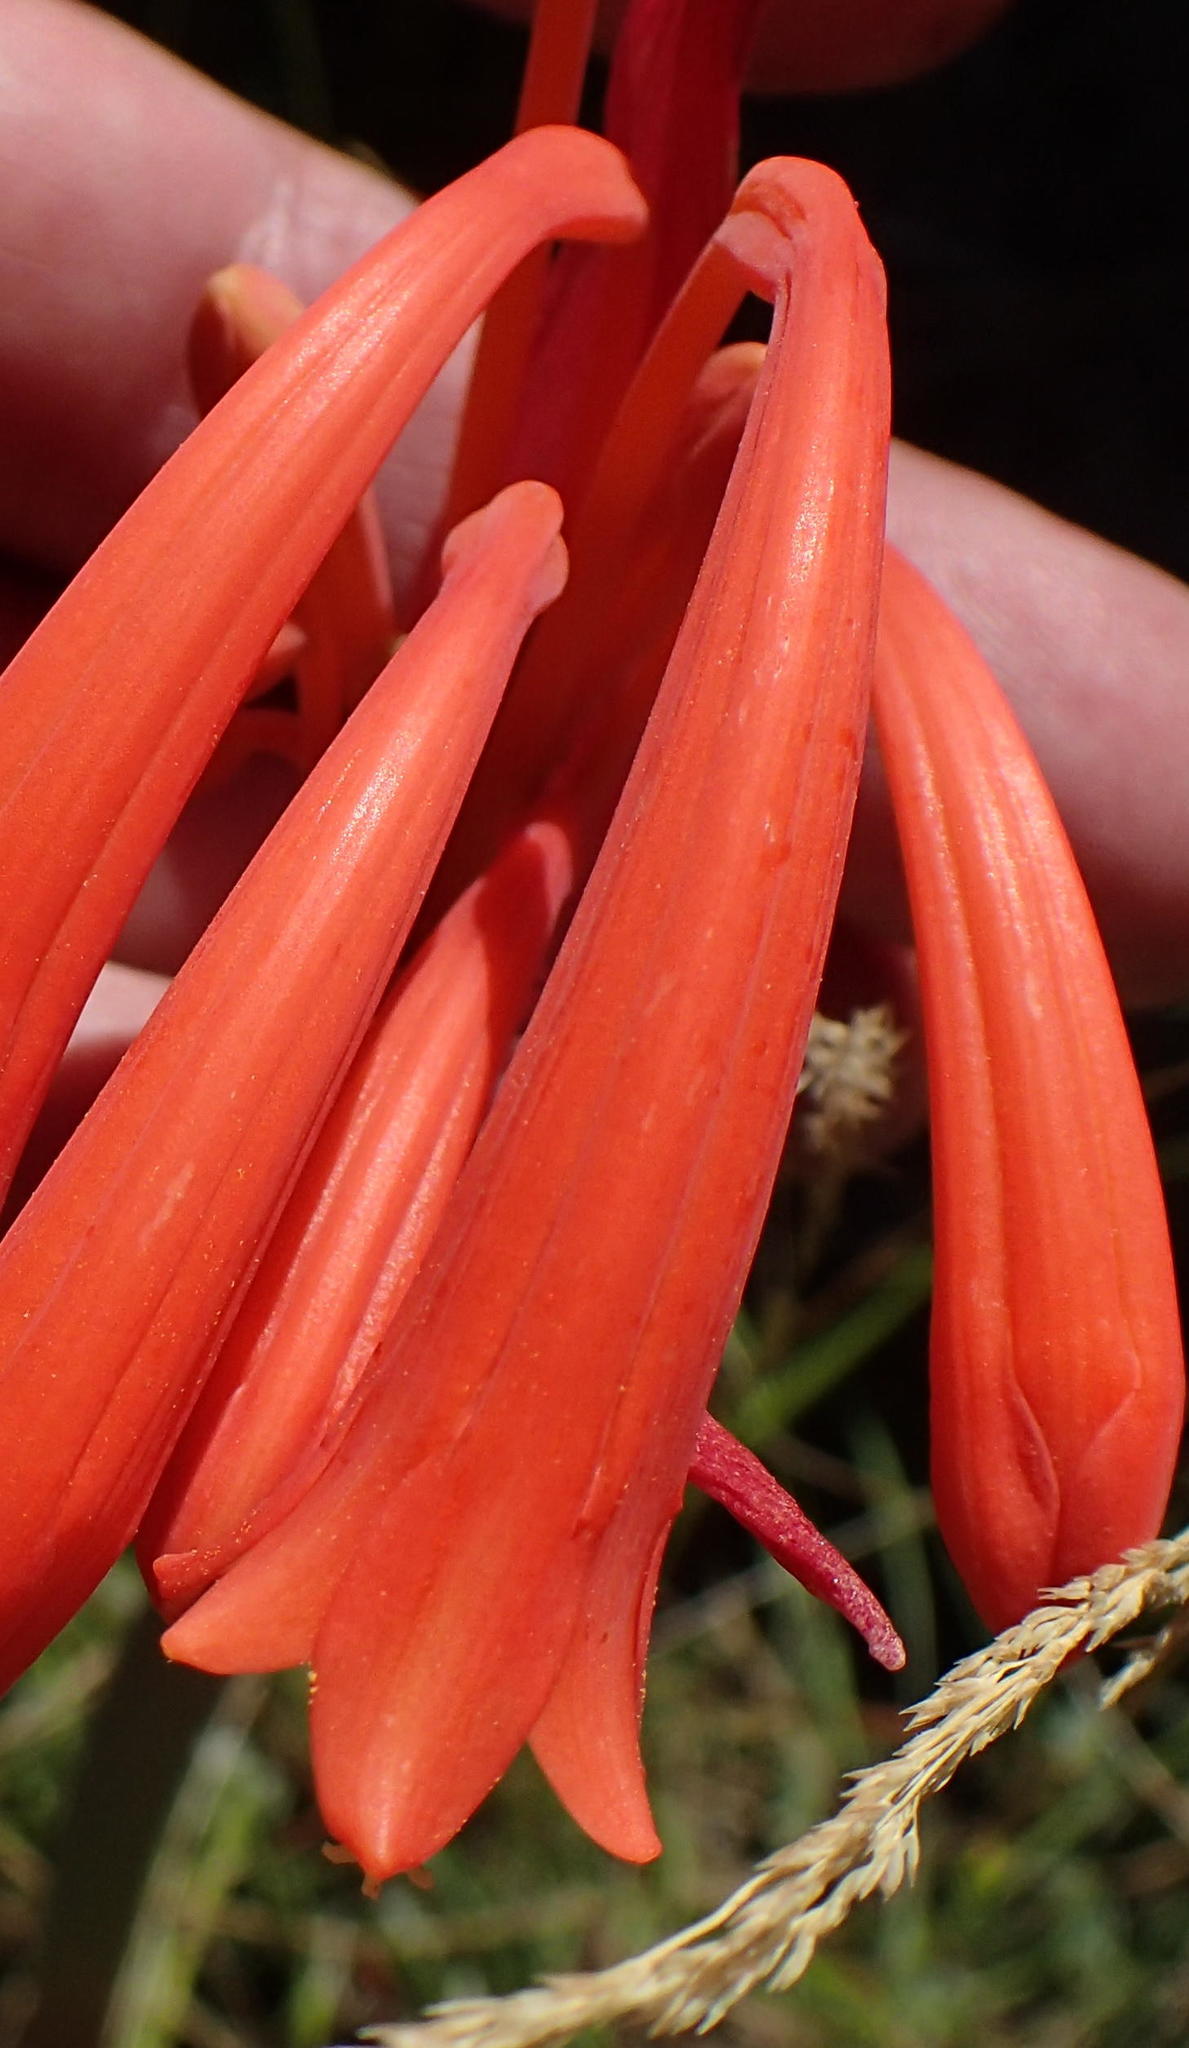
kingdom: Plantae
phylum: Tracheophyta
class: Liliopsida
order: Asparagales
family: Amaryllidaceae
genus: Cyrtanthus
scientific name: Cyrtanthus angustifolius
